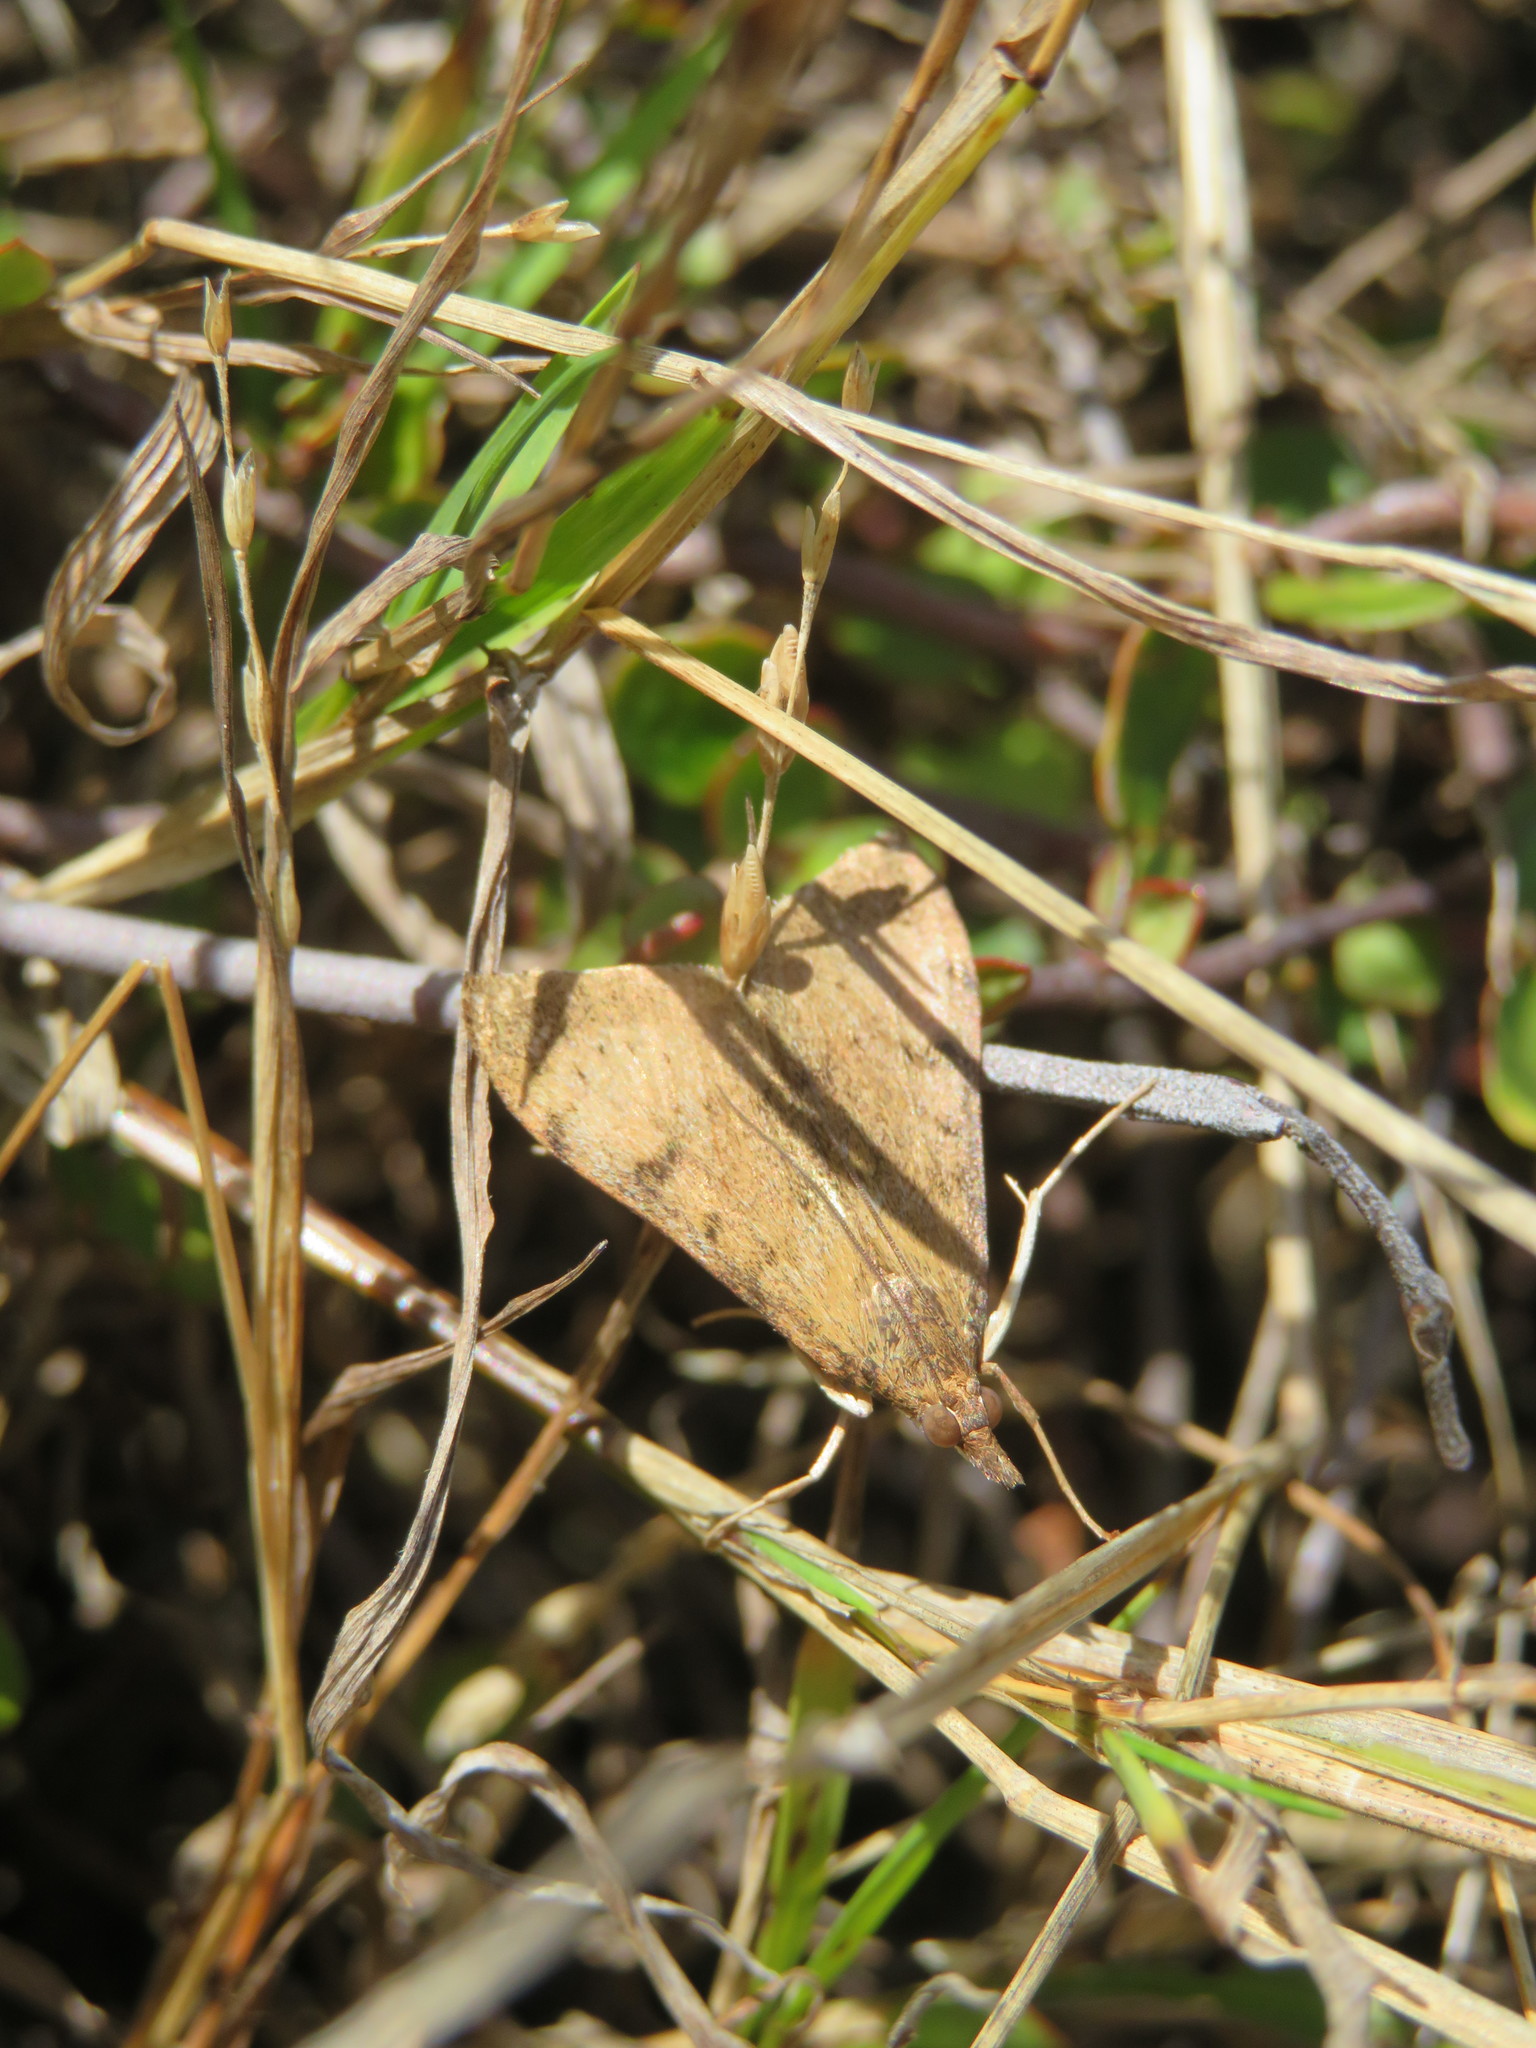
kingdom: Animalia
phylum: Arthropoda
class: Insecta
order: Lepidoptera
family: Crambidae
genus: Uresiphita
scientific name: Uresiphita
